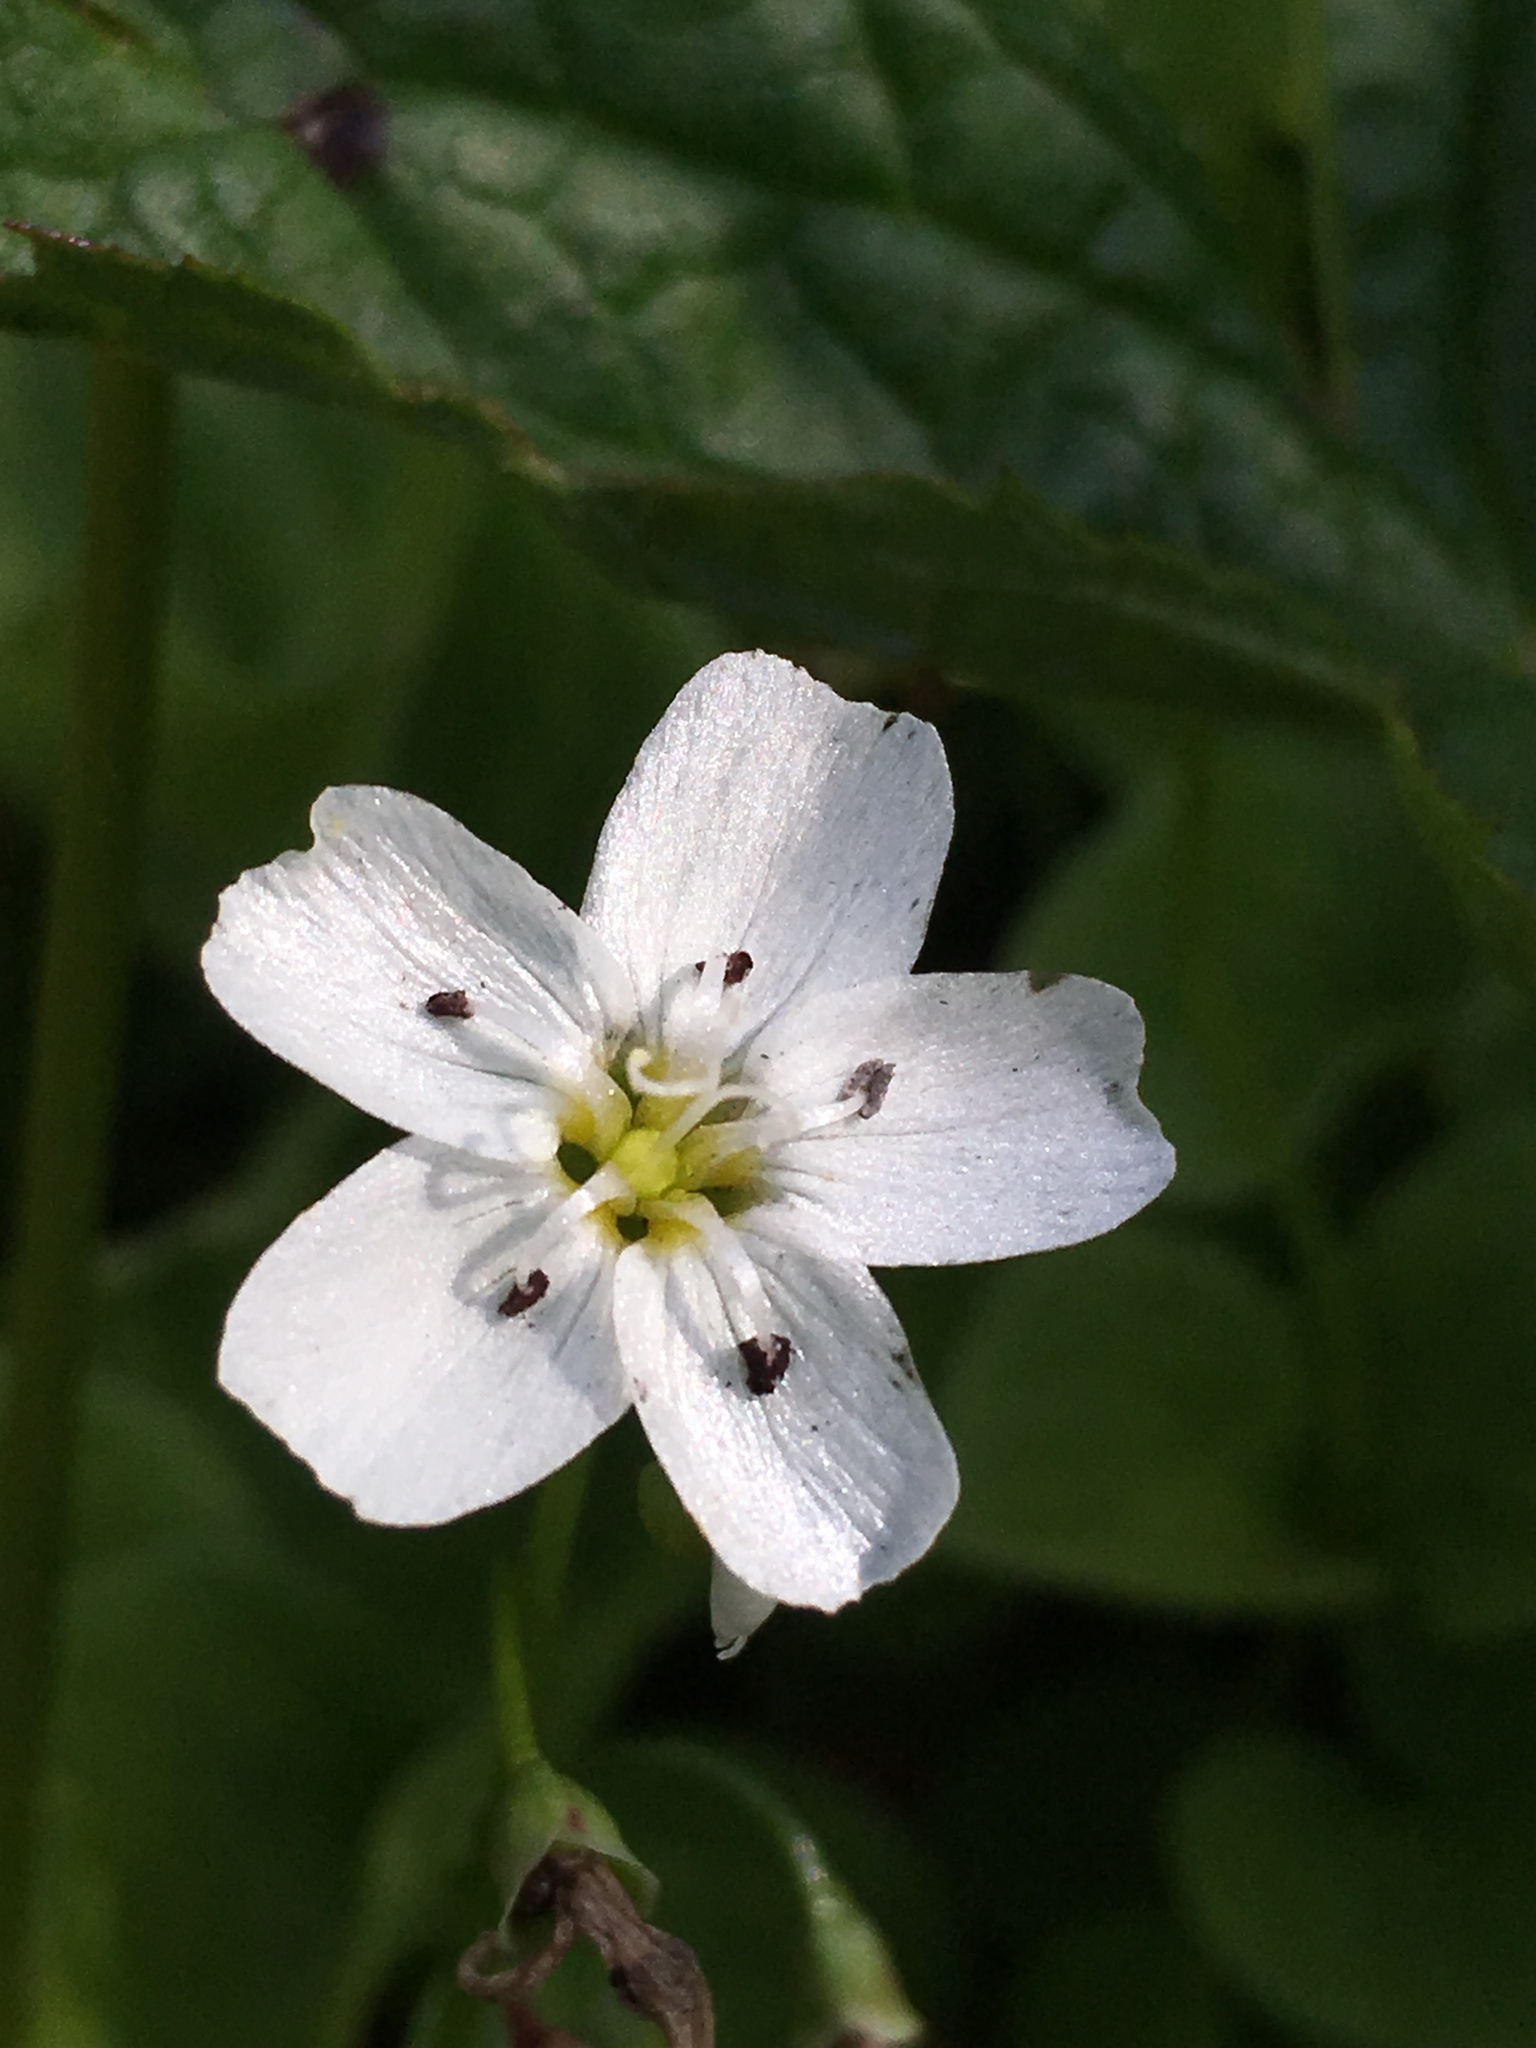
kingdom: Plantae
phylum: Tracheophyta
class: Magnoliopsida
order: Caryophyllales
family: Montiaceae
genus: Claytonia
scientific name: Claytonia cordifolia
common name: Broad-leaved spring beauty
